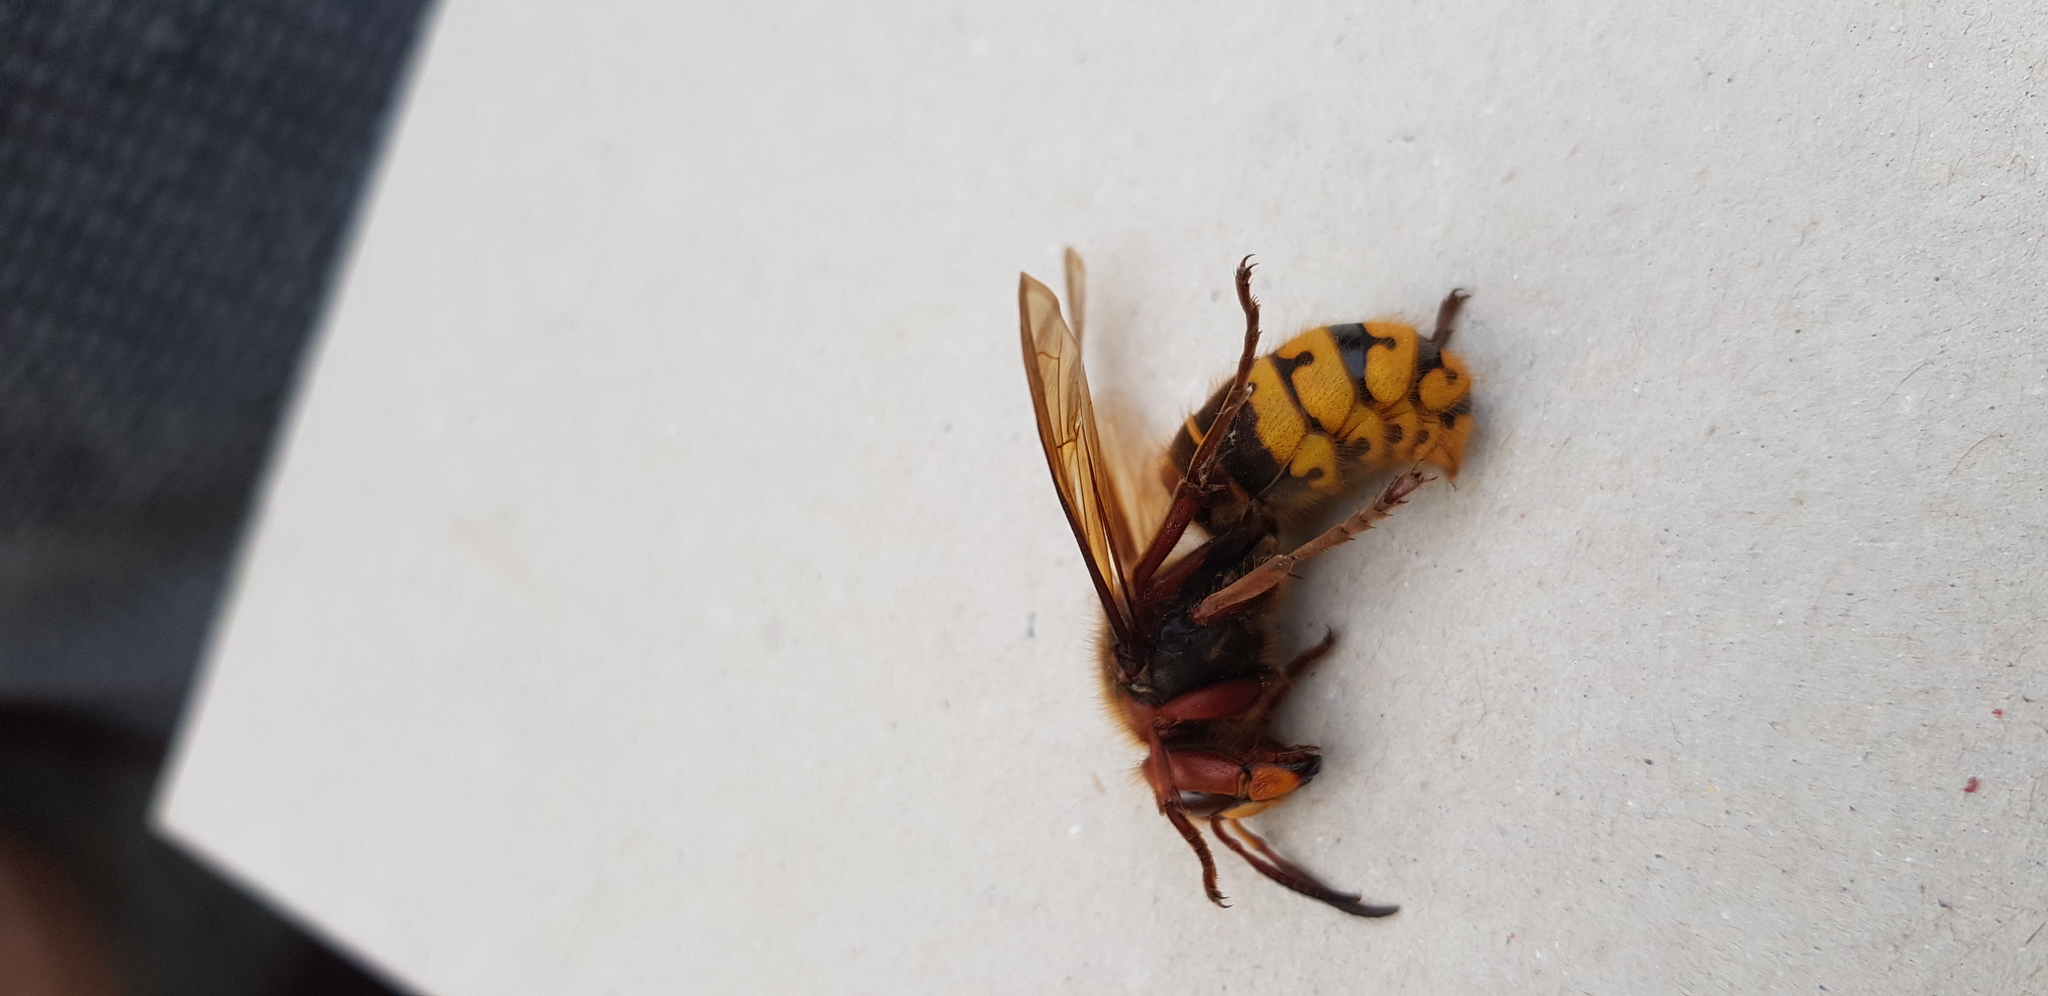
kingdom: Animalia
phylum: Arthropoda
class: Insecta
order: Hymenoptera
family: Vespidae
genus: Vespa
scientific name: Vespa crabro
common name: Hornet
